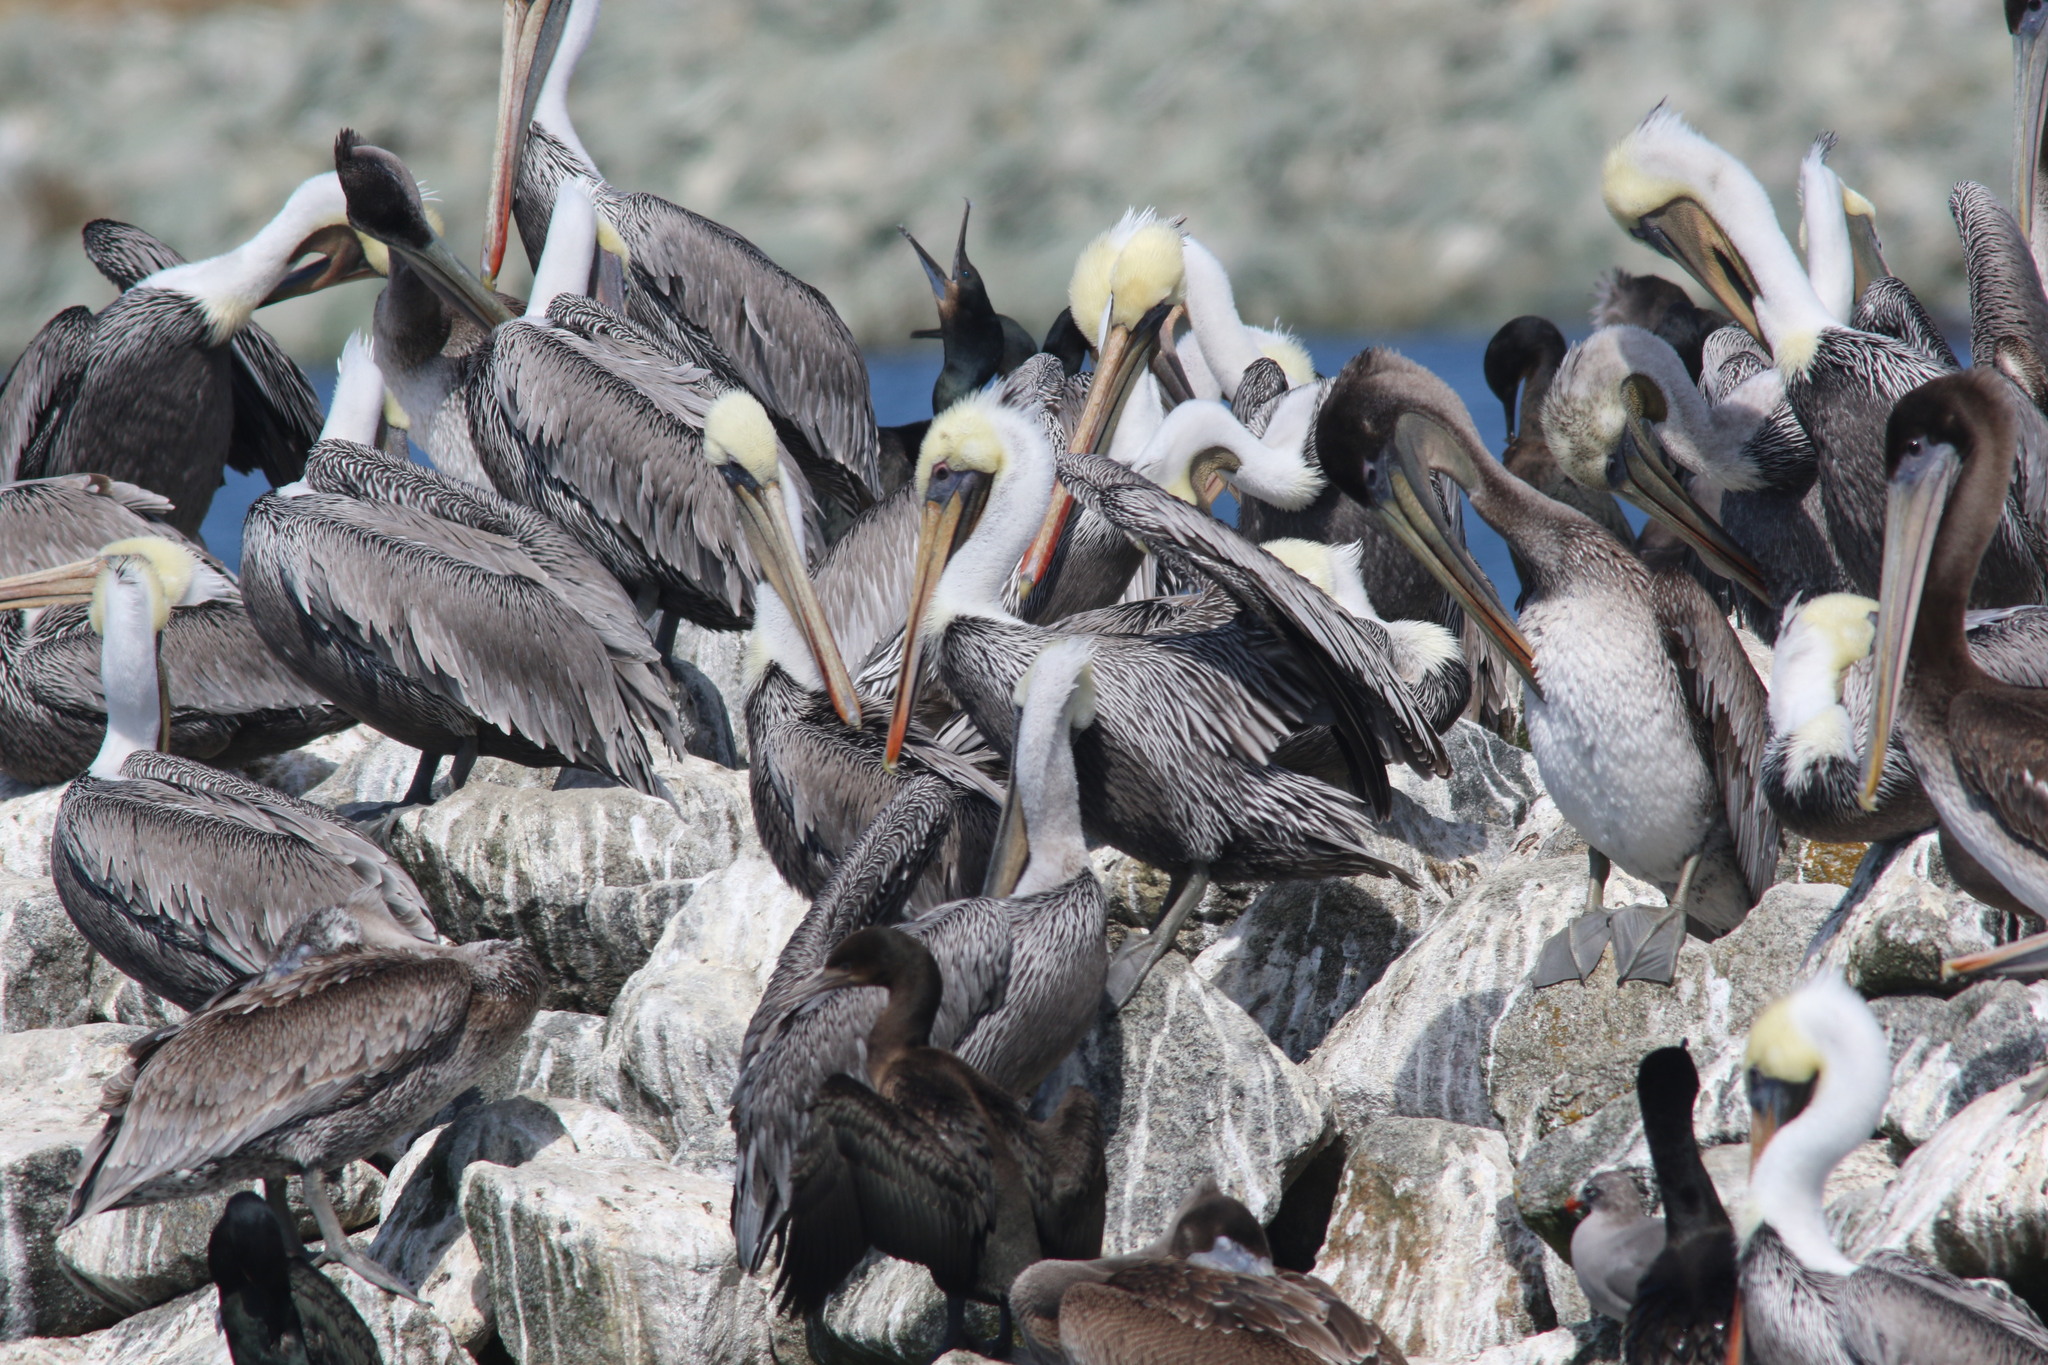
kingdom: Animalia
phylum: Chordata
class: Aves
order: Pelecaniformes
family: Pelecanidae
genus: Pelecanus
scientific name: Pelecanus occidentalis
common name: Brown pelican
